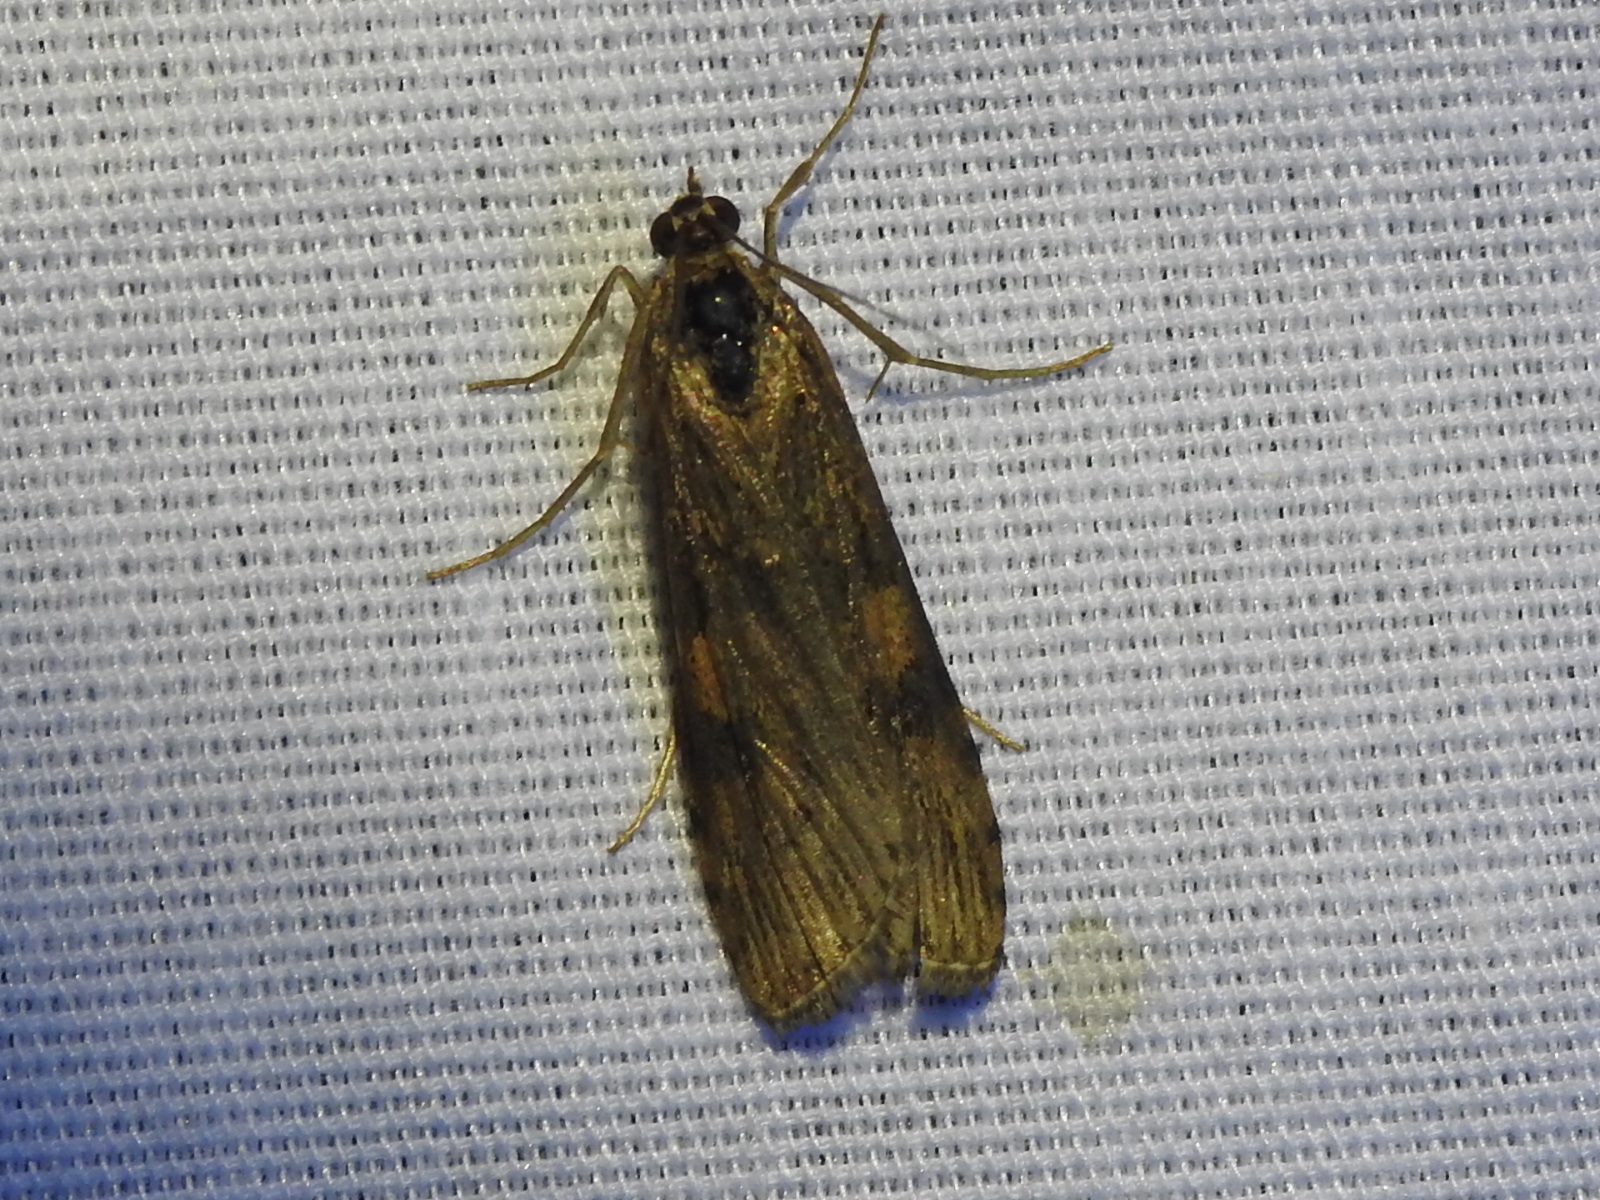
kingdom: Animalia
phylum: Arthropoda
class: Insecta
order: Lepidoptera
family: Crambidae
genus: Nomophila
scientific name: Nomophila nearctica
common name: American rush veneer
